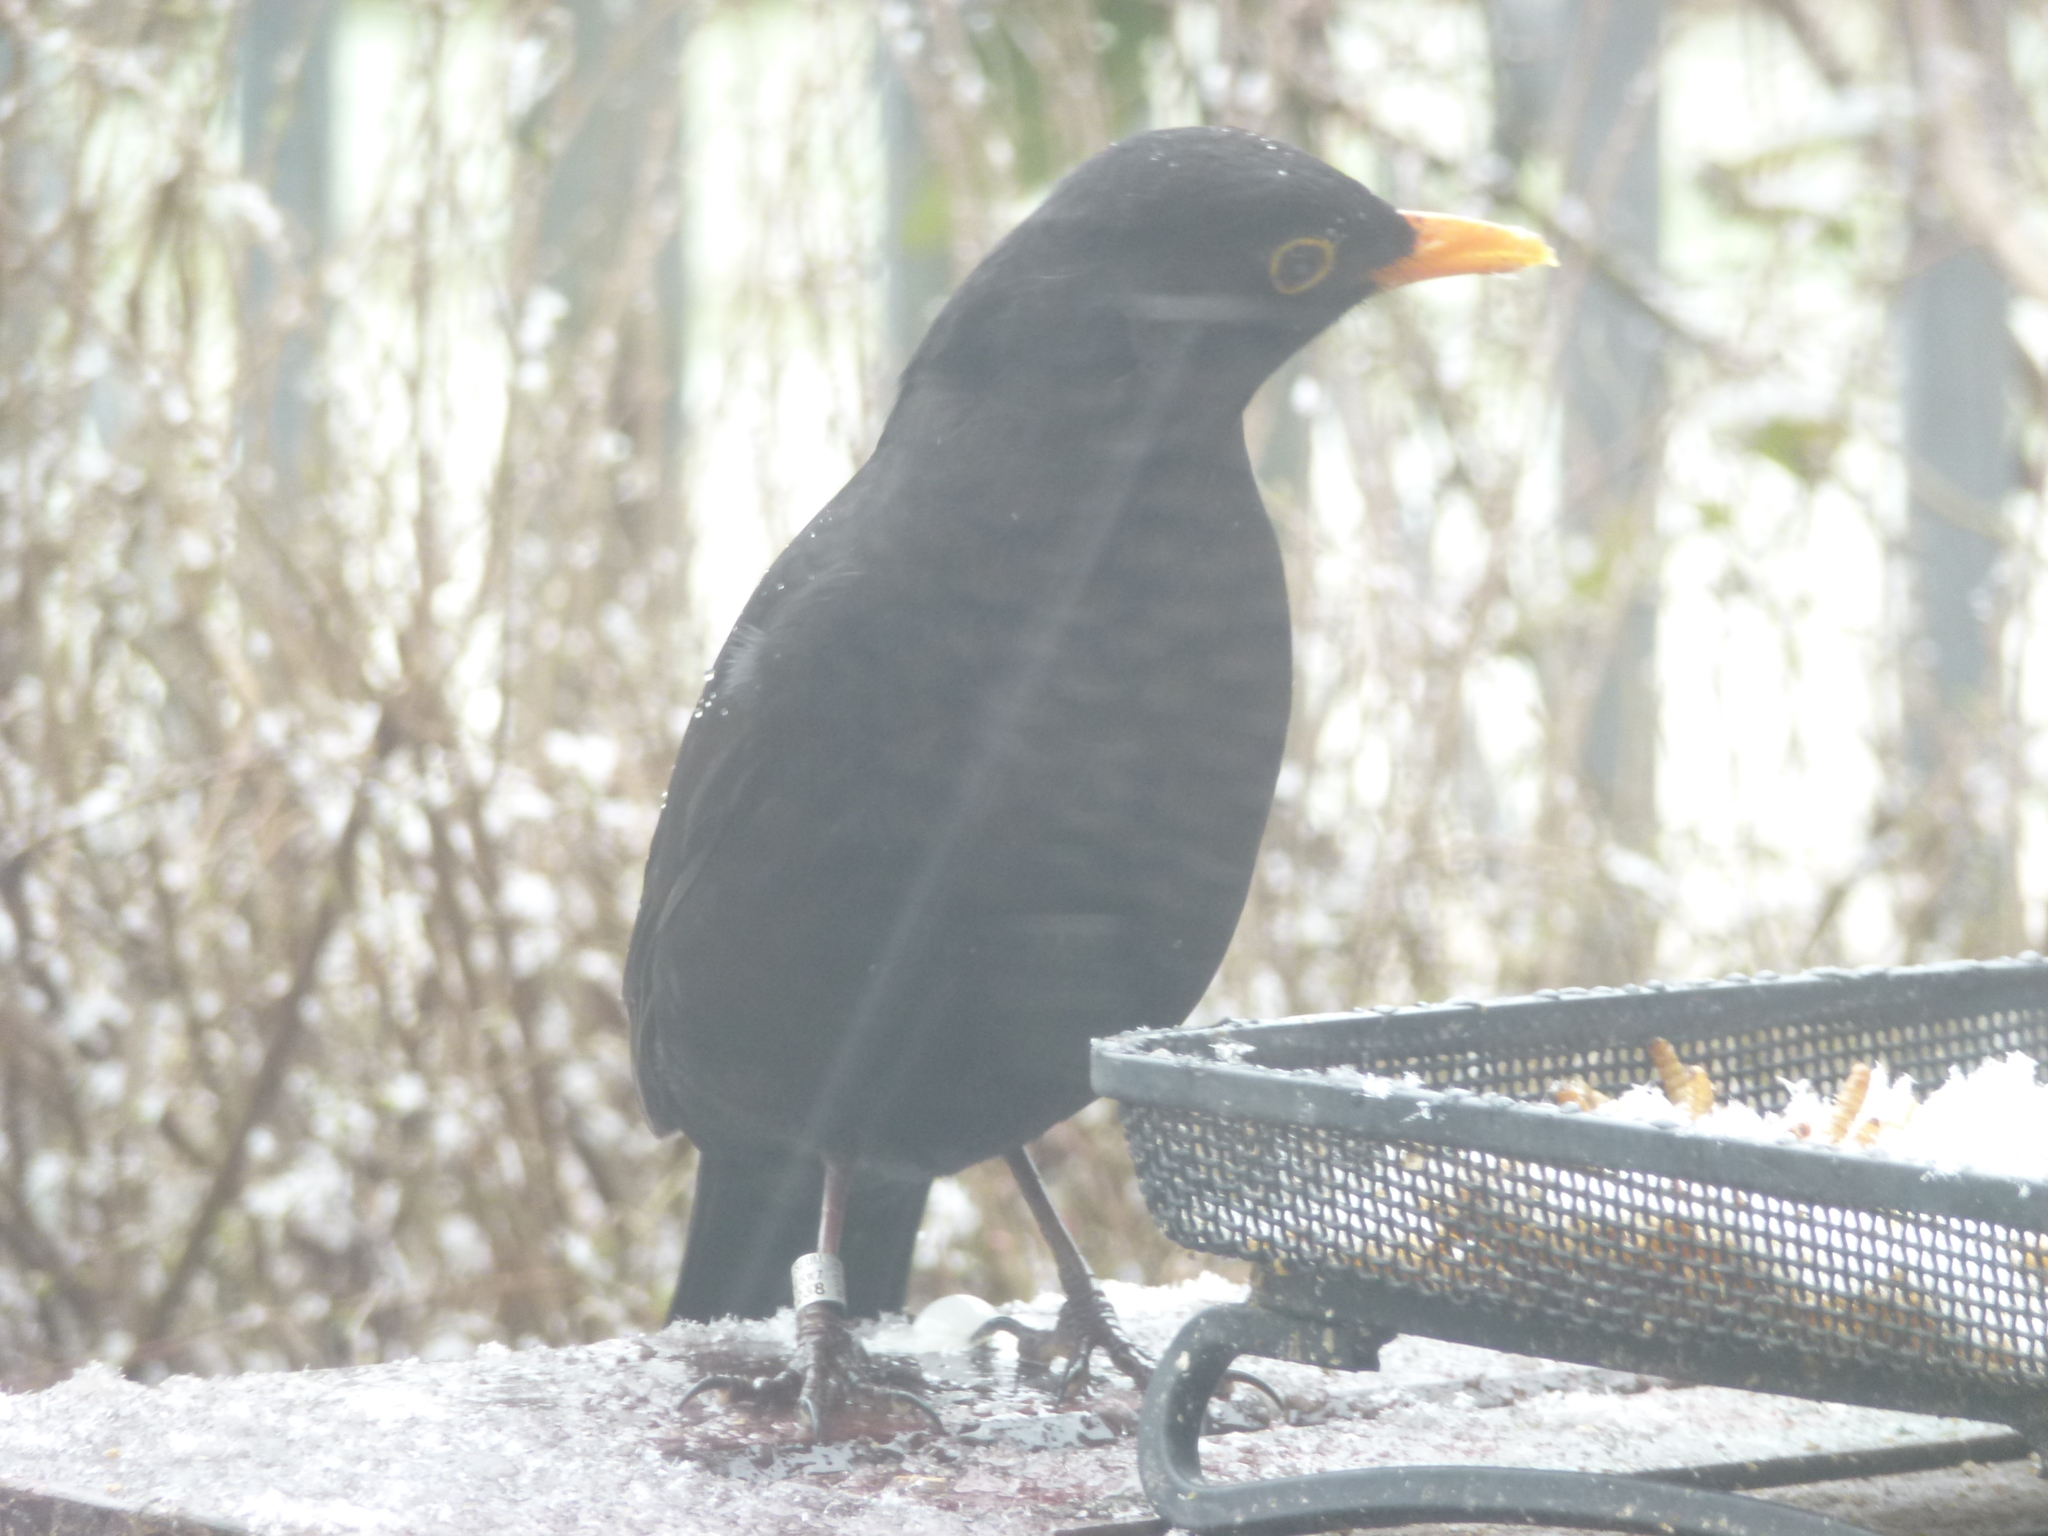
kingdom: Animalia
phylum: Chordata
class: Aves
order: Passeriformes
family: Turdidae
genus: Turdus
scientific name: Turdus merula
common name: Common blackbird
